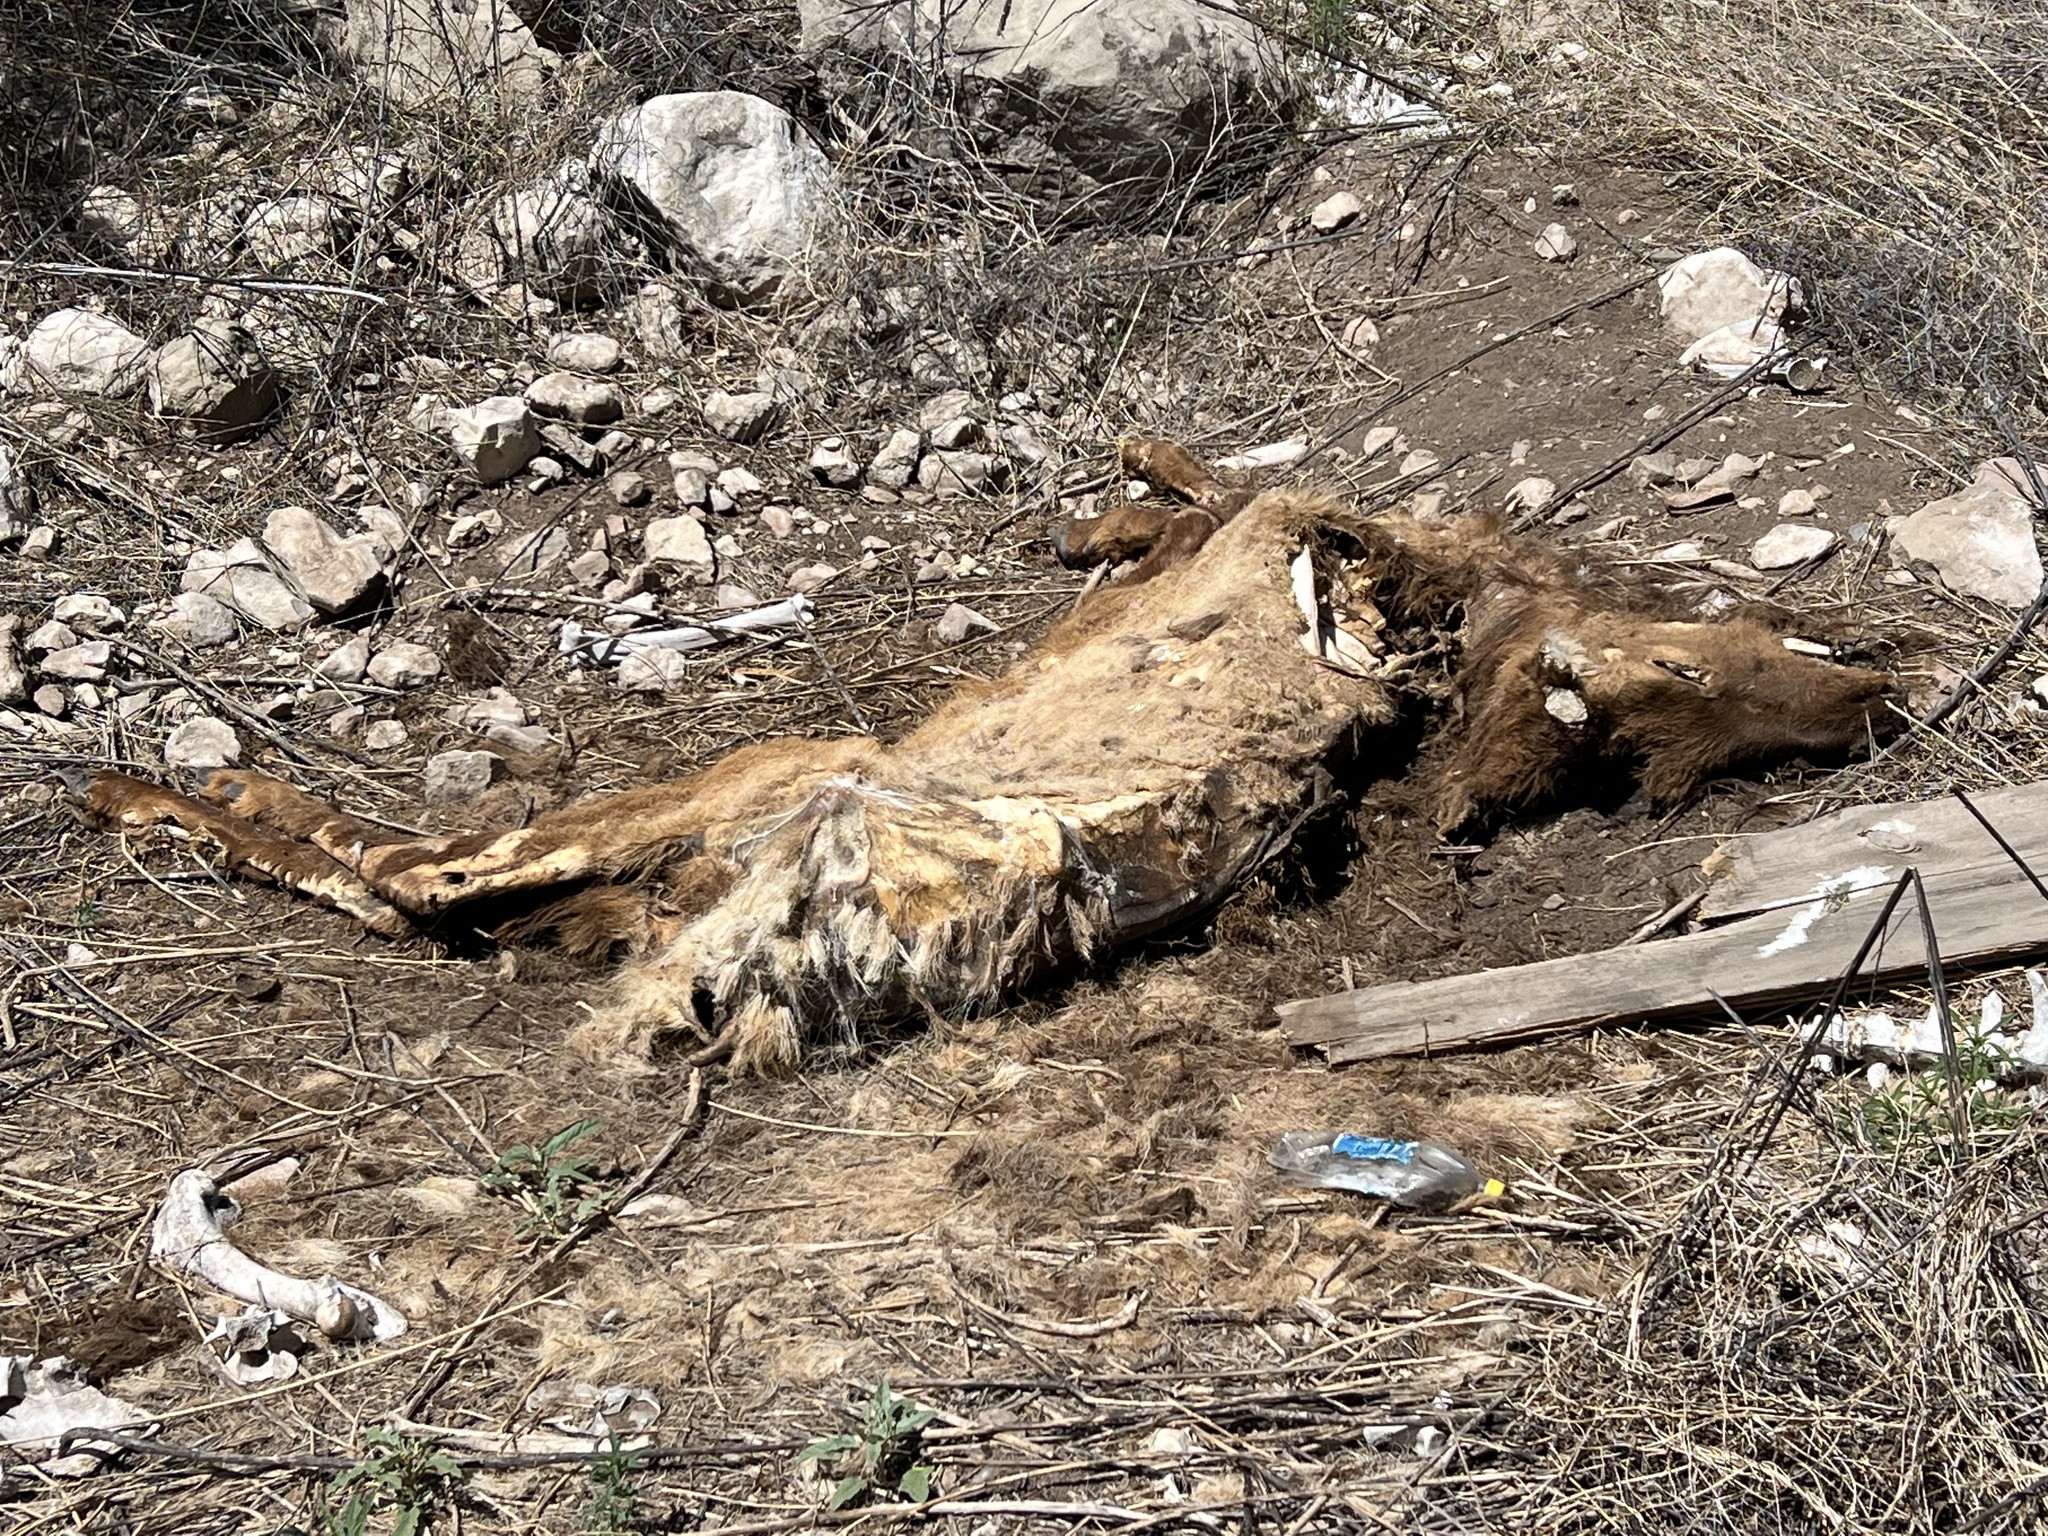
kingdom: Animalia
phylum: Chordata
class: Mammalia
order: Artiodactyla
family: Cervidae
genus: Cervus
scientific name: Cervus elaphus
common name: Red deer
